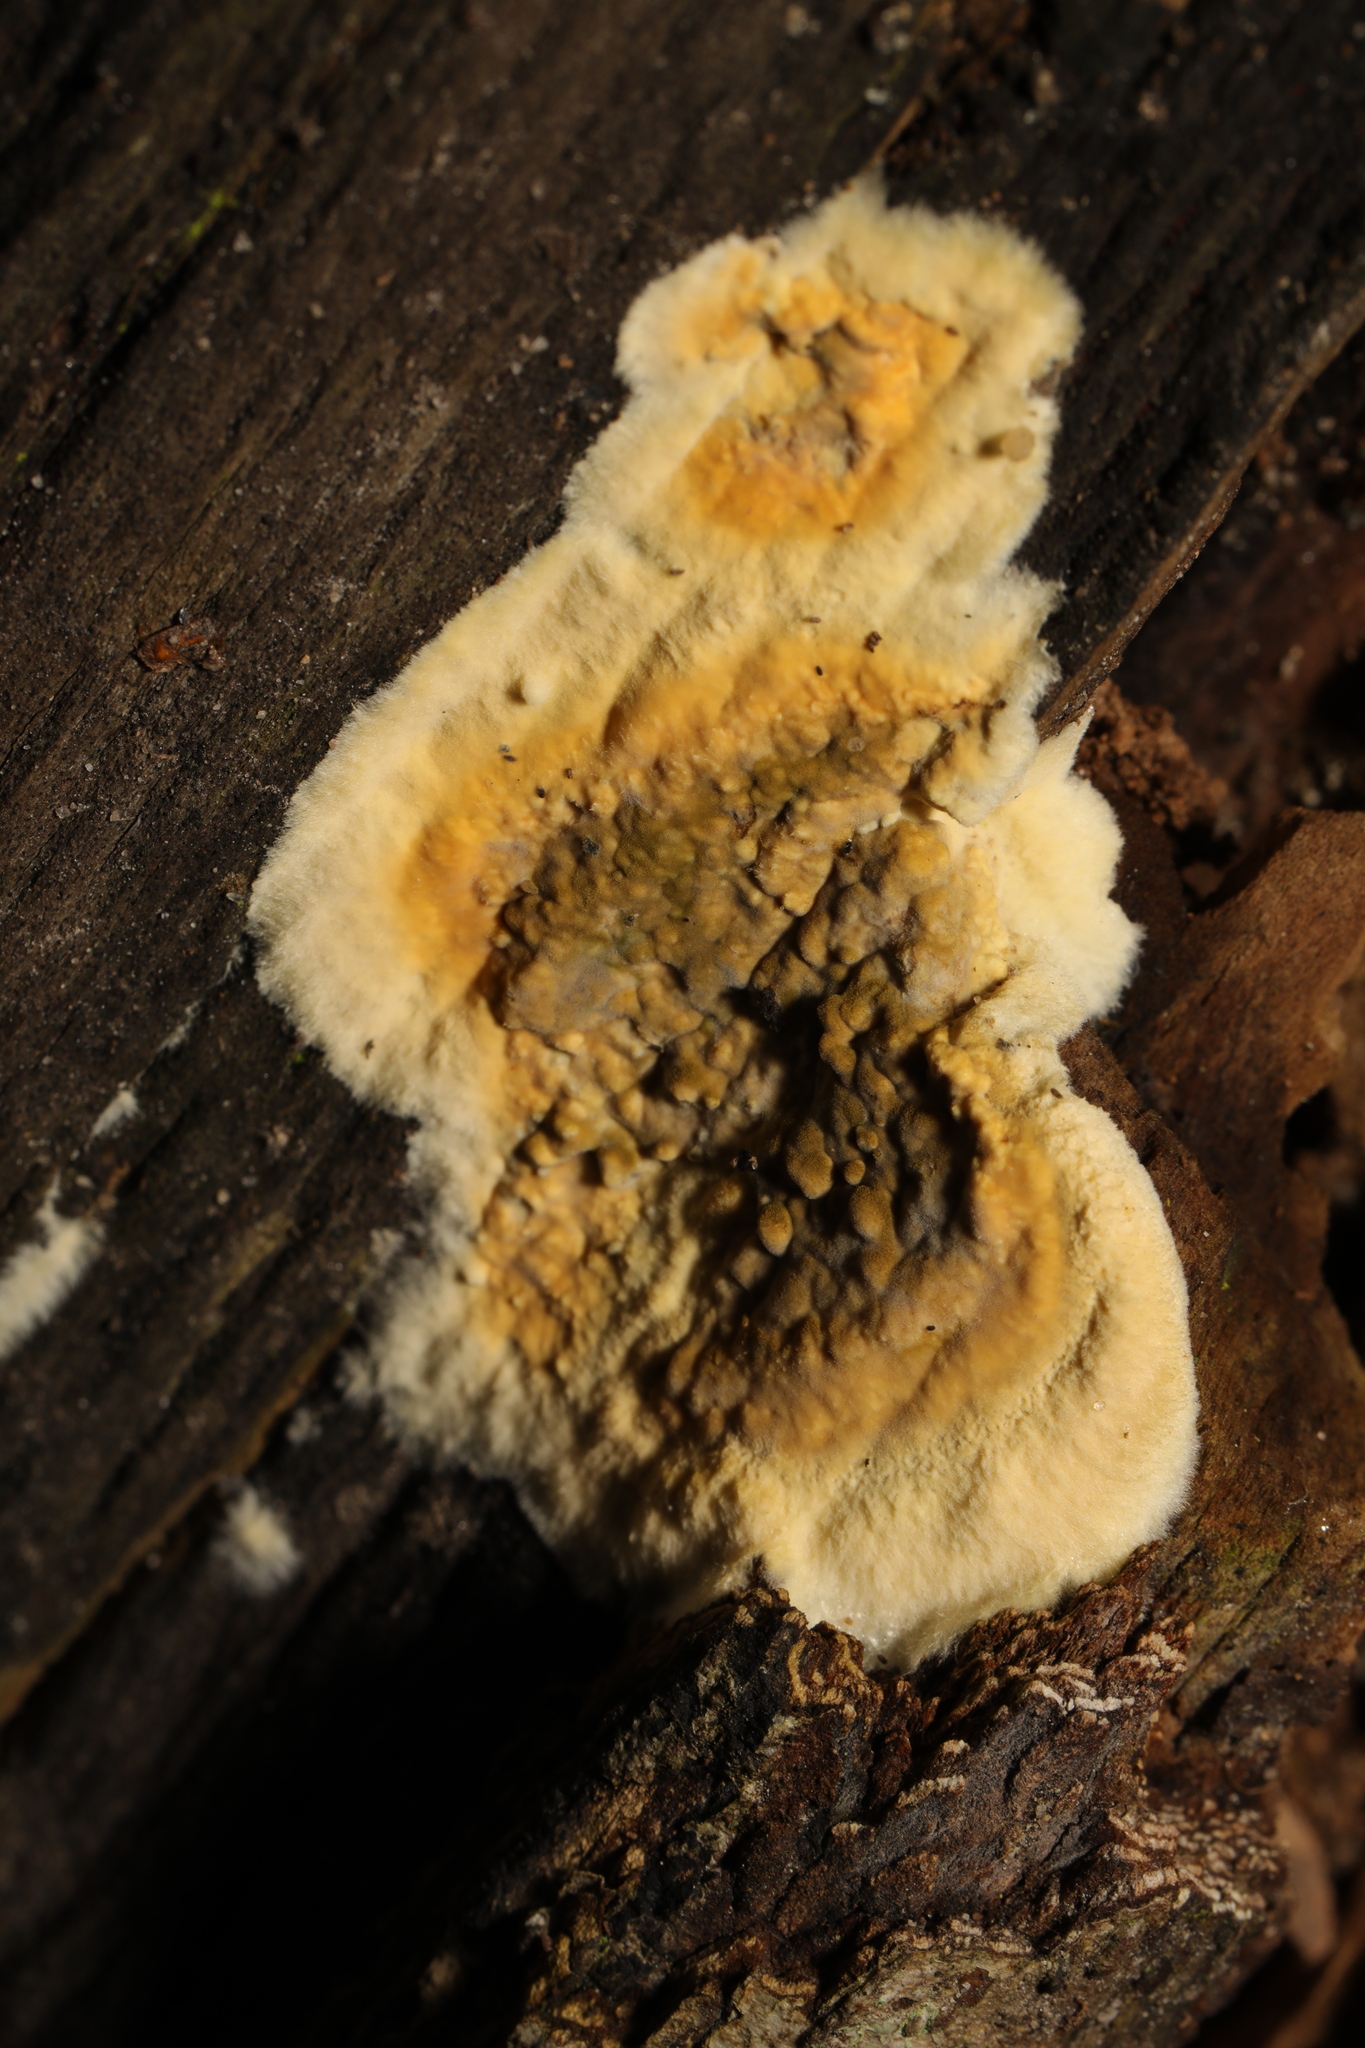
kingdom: Fungi
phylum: Basidiomycota
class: Agaricomycetes
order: Boletales
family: Coniophoraceae
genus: Coniophora
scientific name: Coniophora puteana
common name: Cellar fungus
